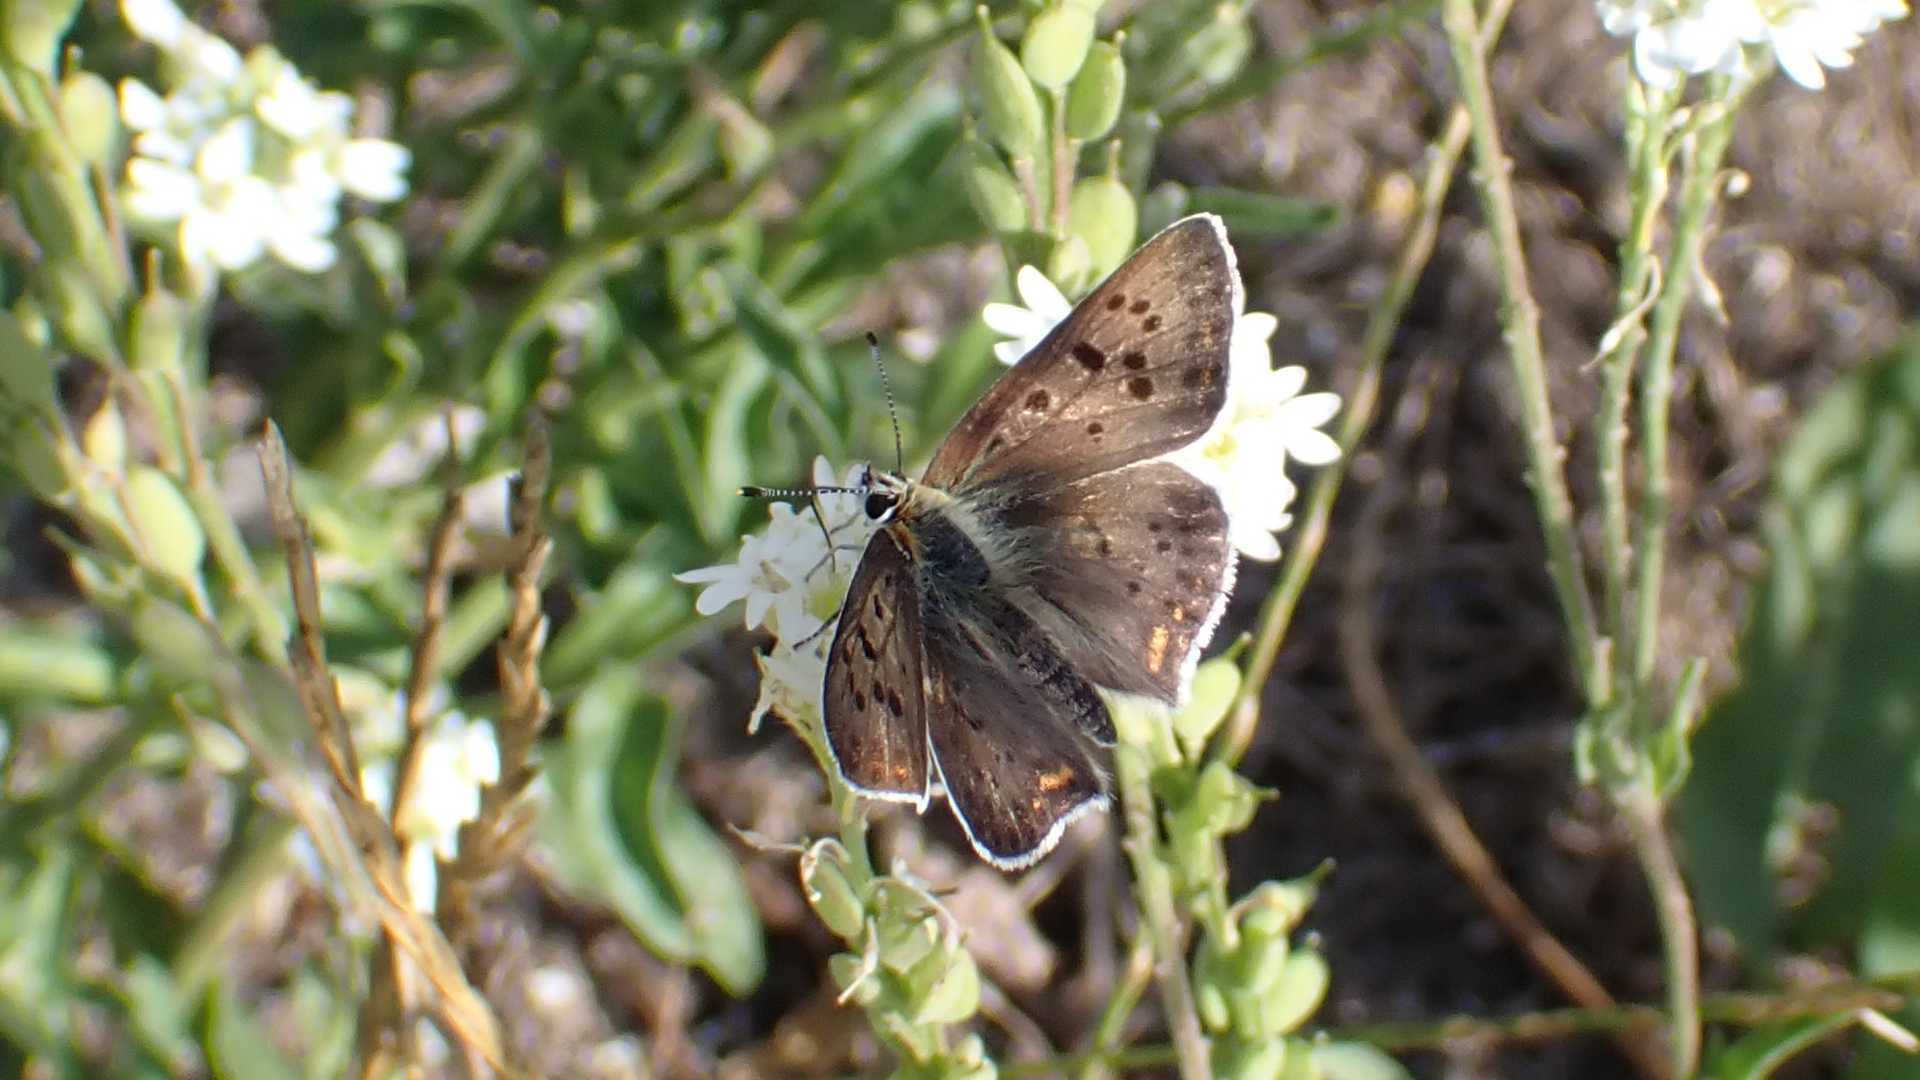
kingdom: Animalia
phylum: Arthropoda
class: Insecta
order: Lepidoptera
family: Lycaenidae
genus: Loweia
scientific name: Loweia tityrus
